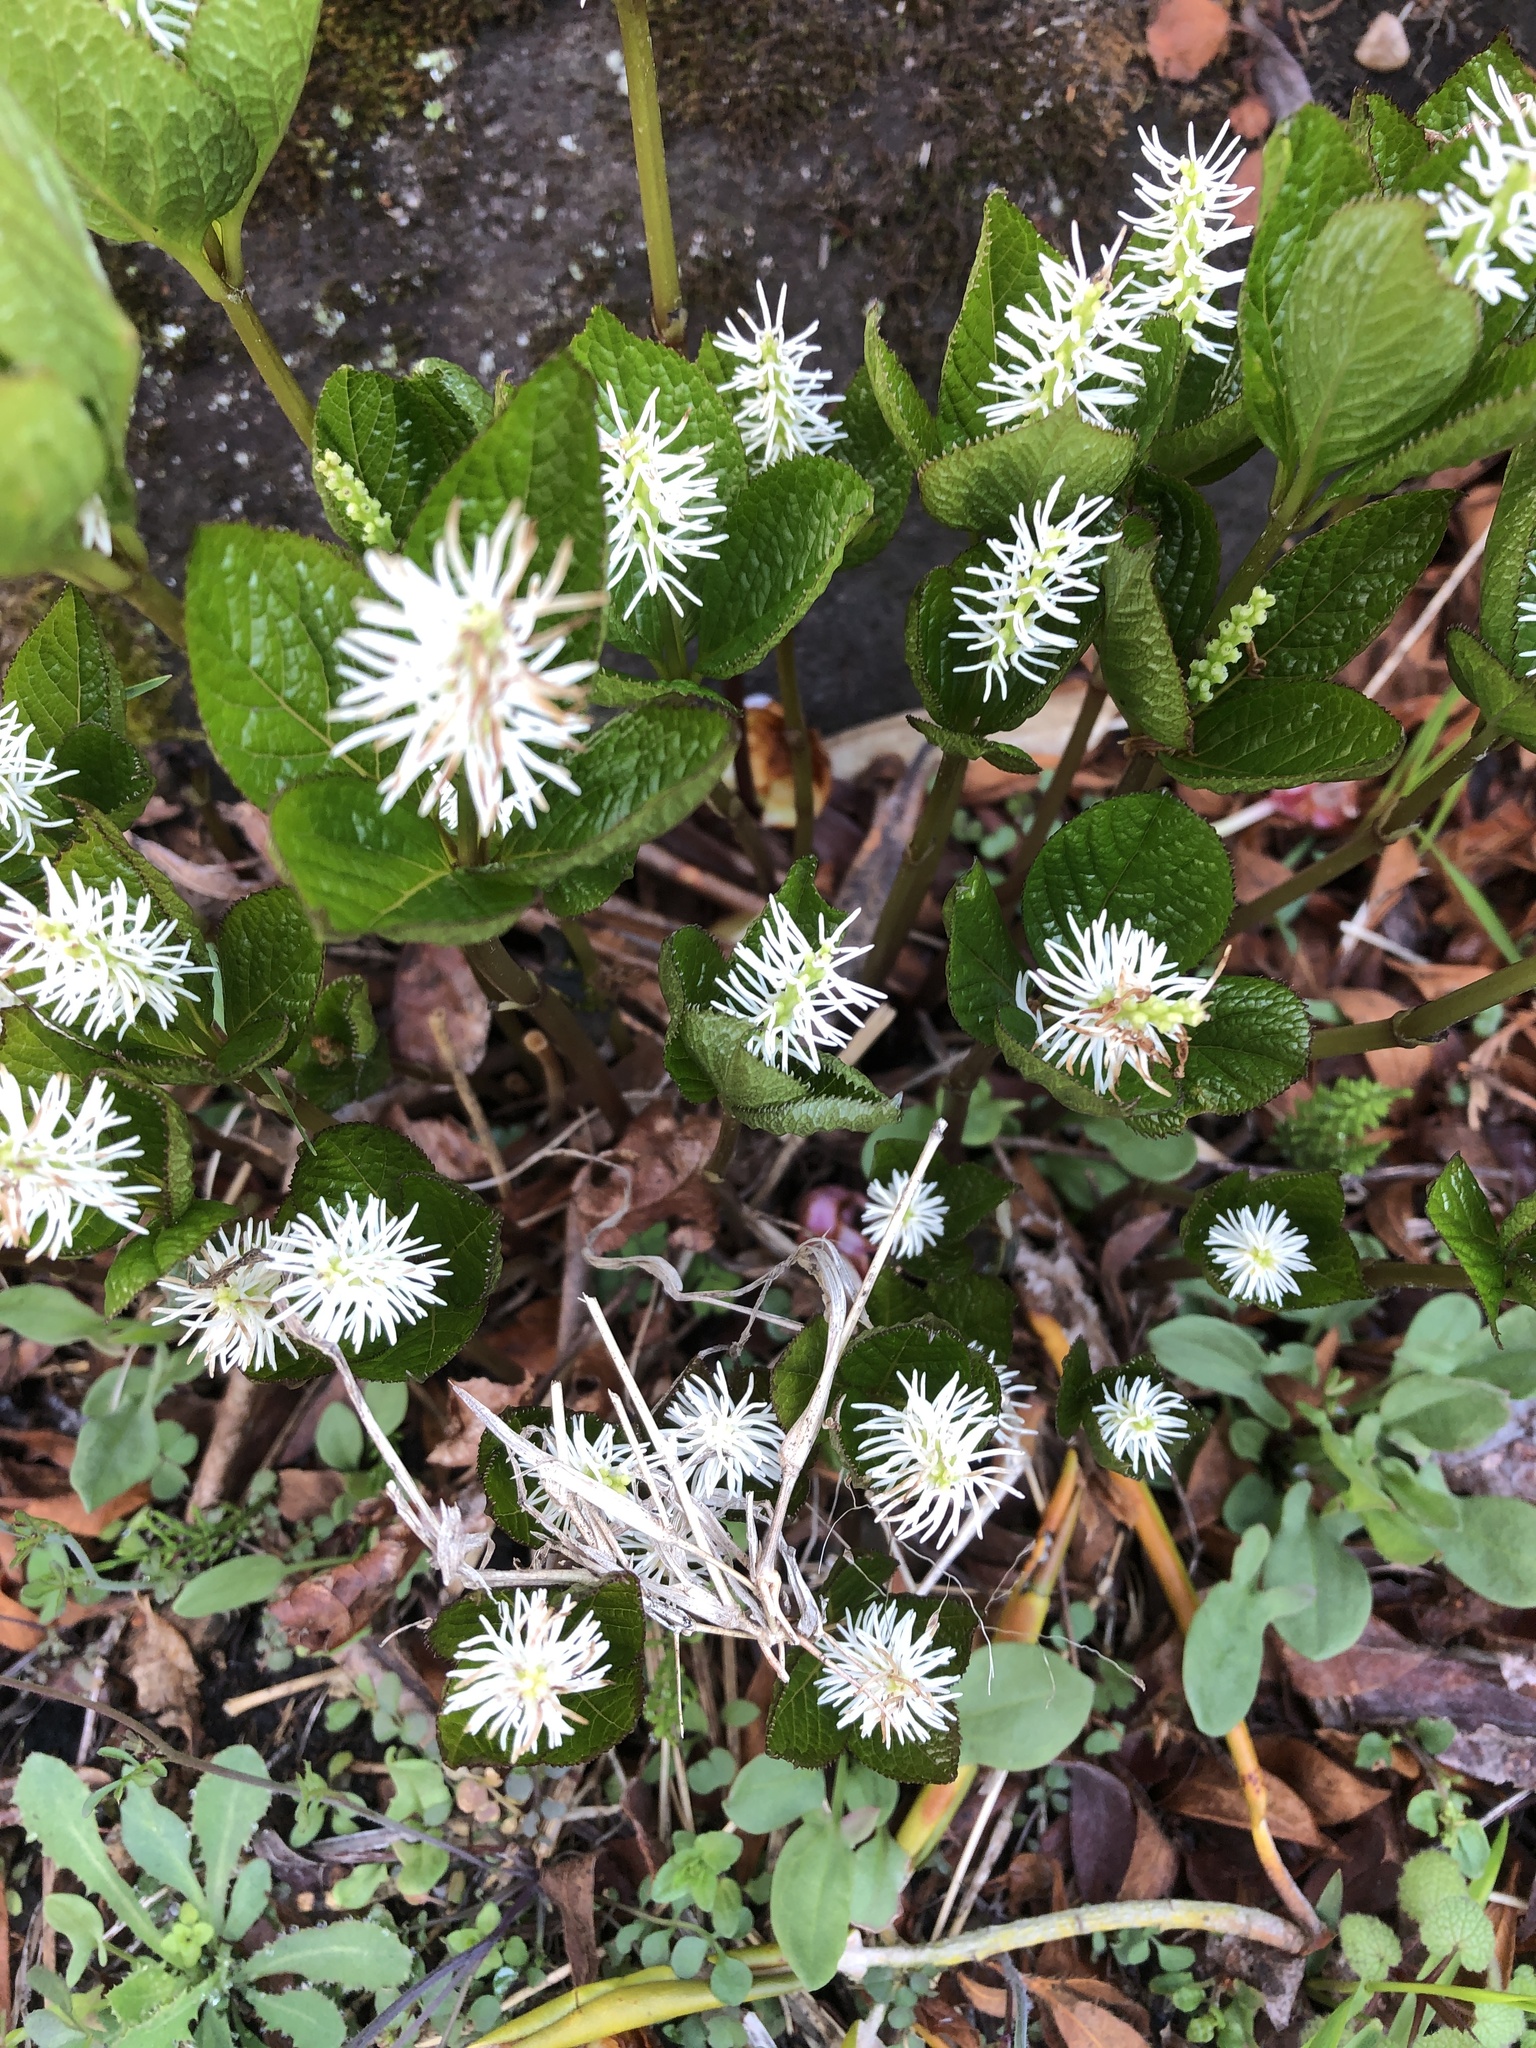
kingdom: Plantae
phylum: Tracheophyta
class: Magnoliopsida
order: Chloranthales
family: Chloranthaceae
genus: Chloranthus
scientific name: Chloranthus quadrifolius
